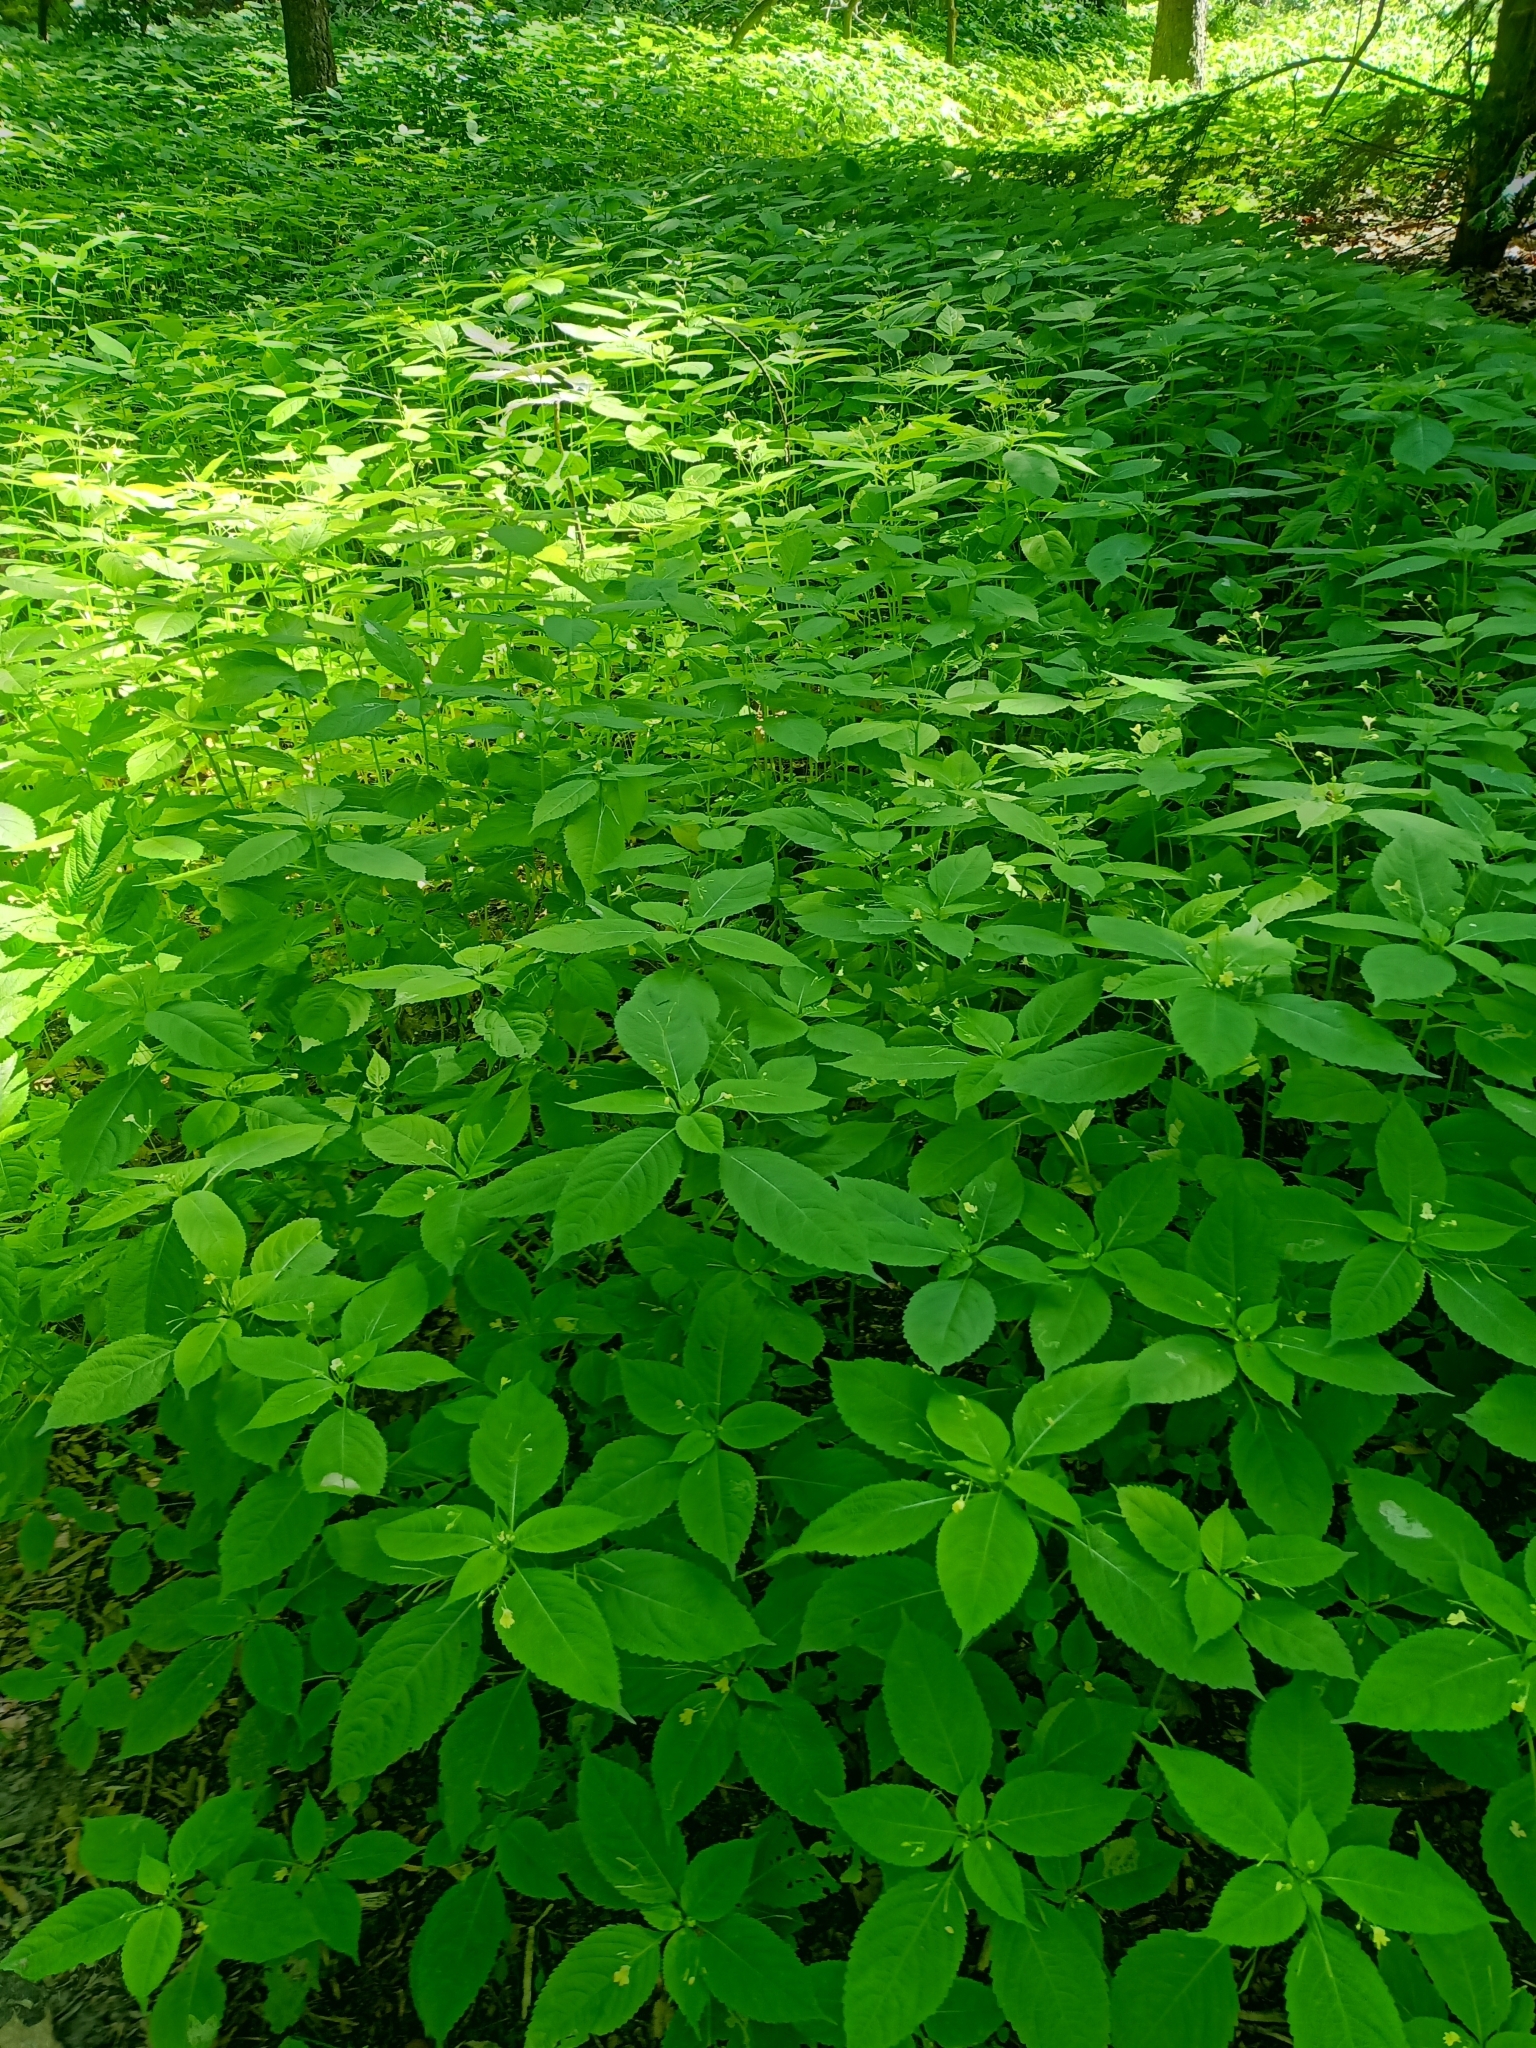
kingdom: Plantae
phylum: Tracheophyta
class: Magnoliopsida
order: Ericales
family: Balsaminaceae
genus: Impatiens
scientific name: Impatiens parviflora
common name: Small balsam
